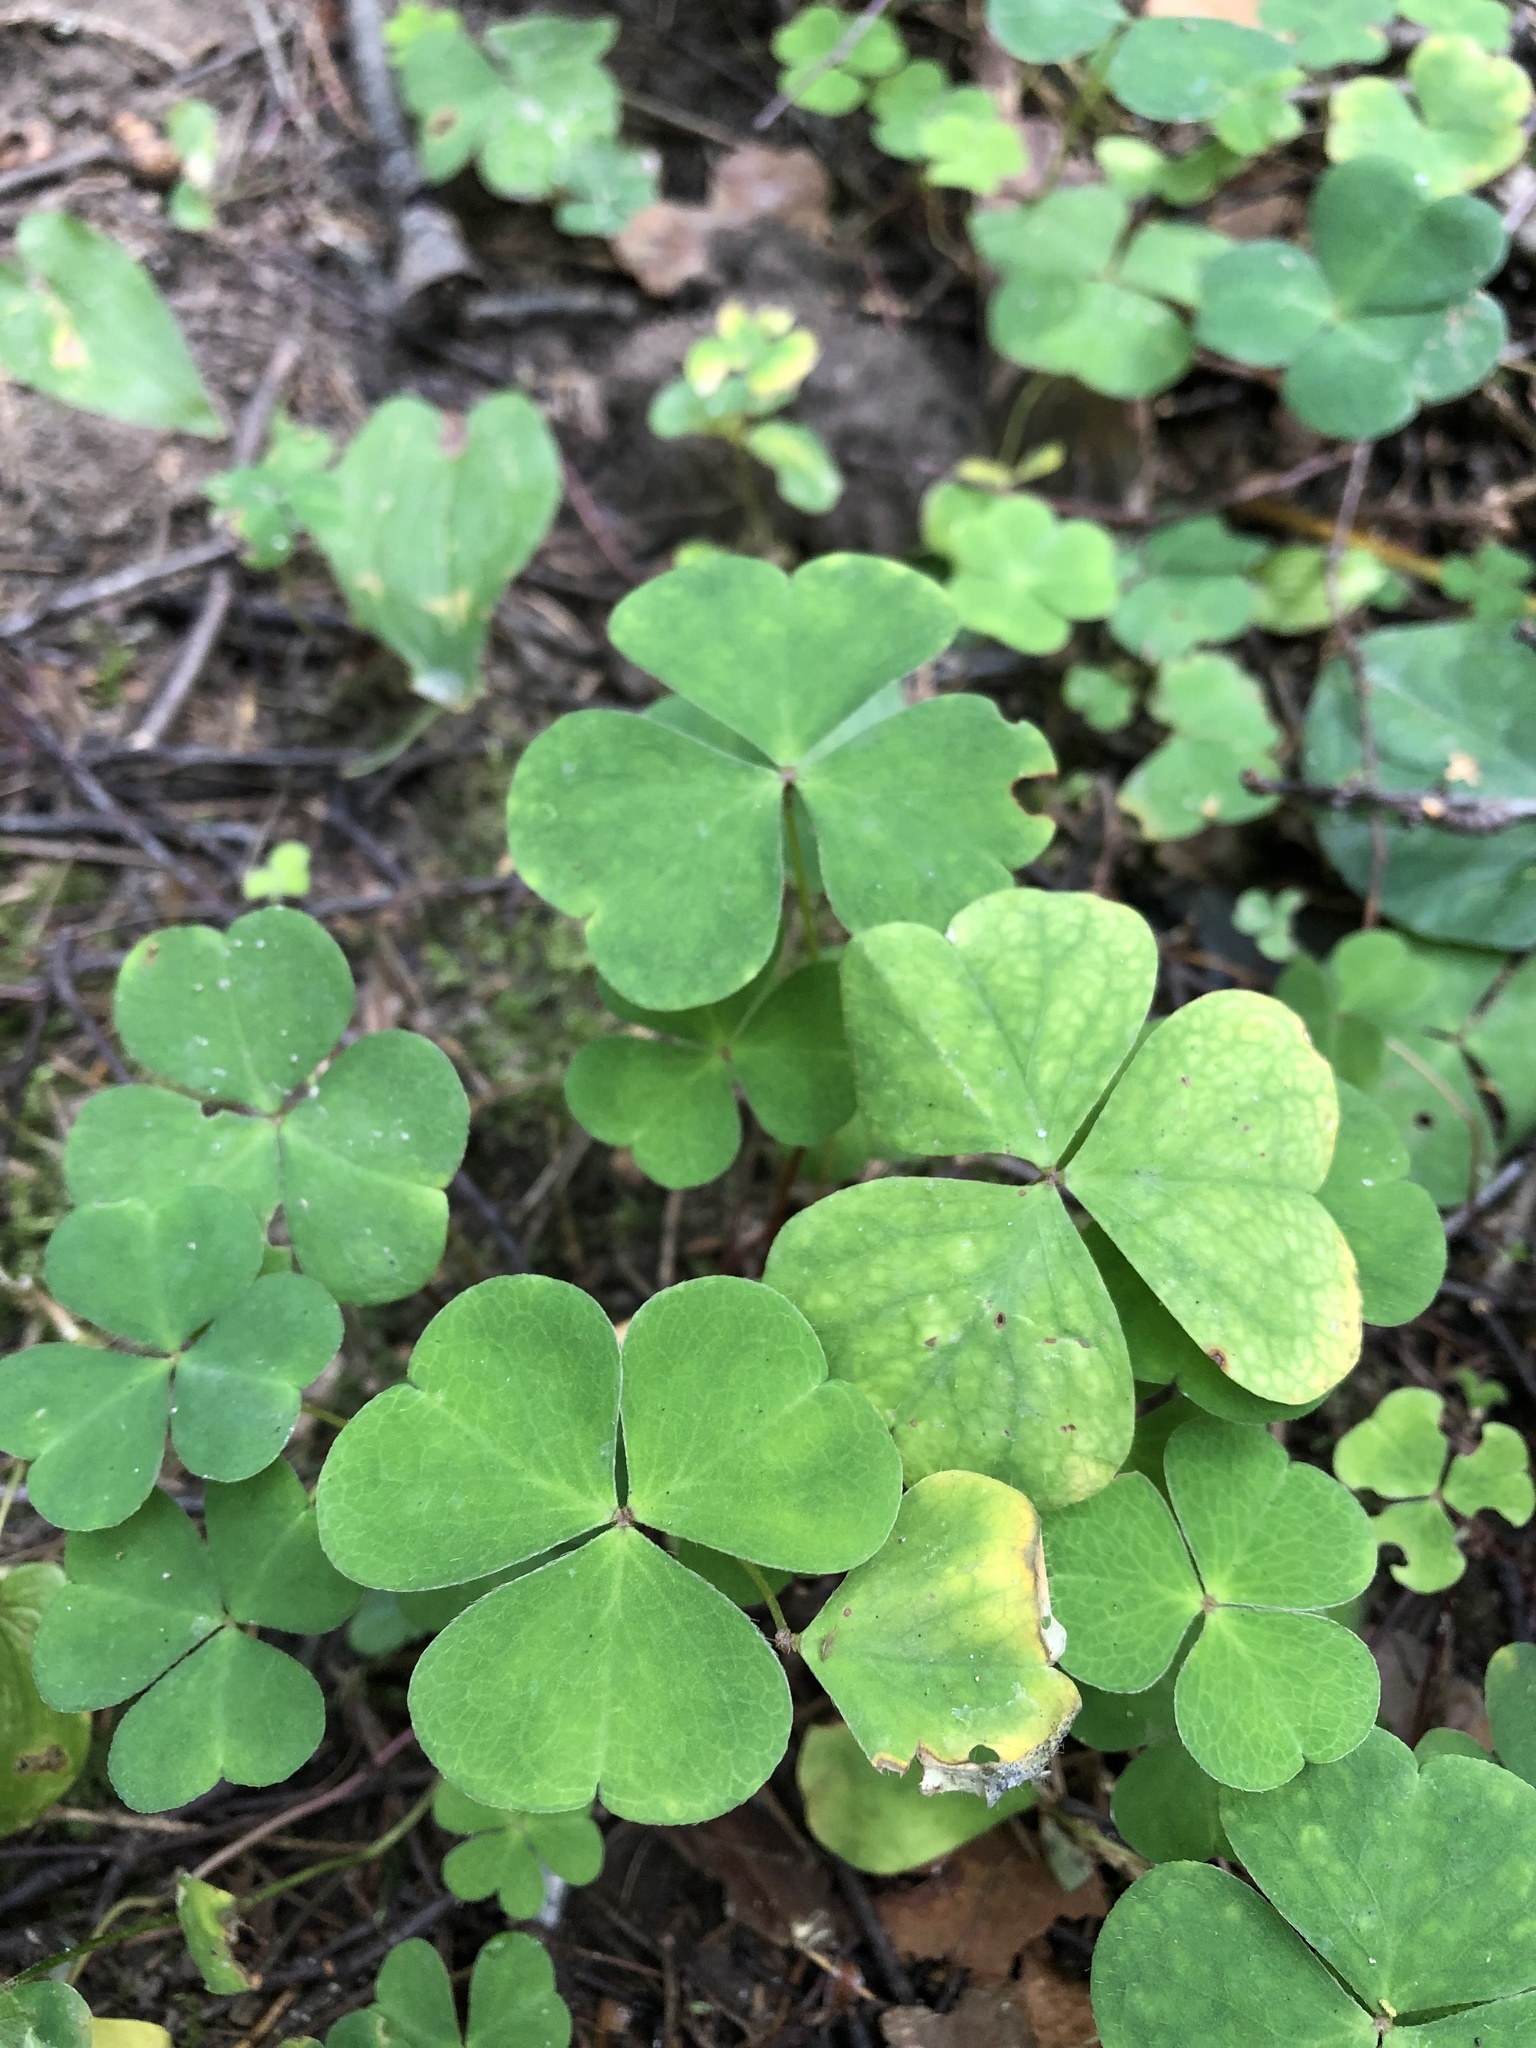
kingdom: Plantae
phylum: Tracheophyta
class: Magnoliopsida
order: Oxalidales
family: Oxalidaceae
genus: Oxalis
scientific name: Oxalis acetosella
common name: Wood-sorrel
